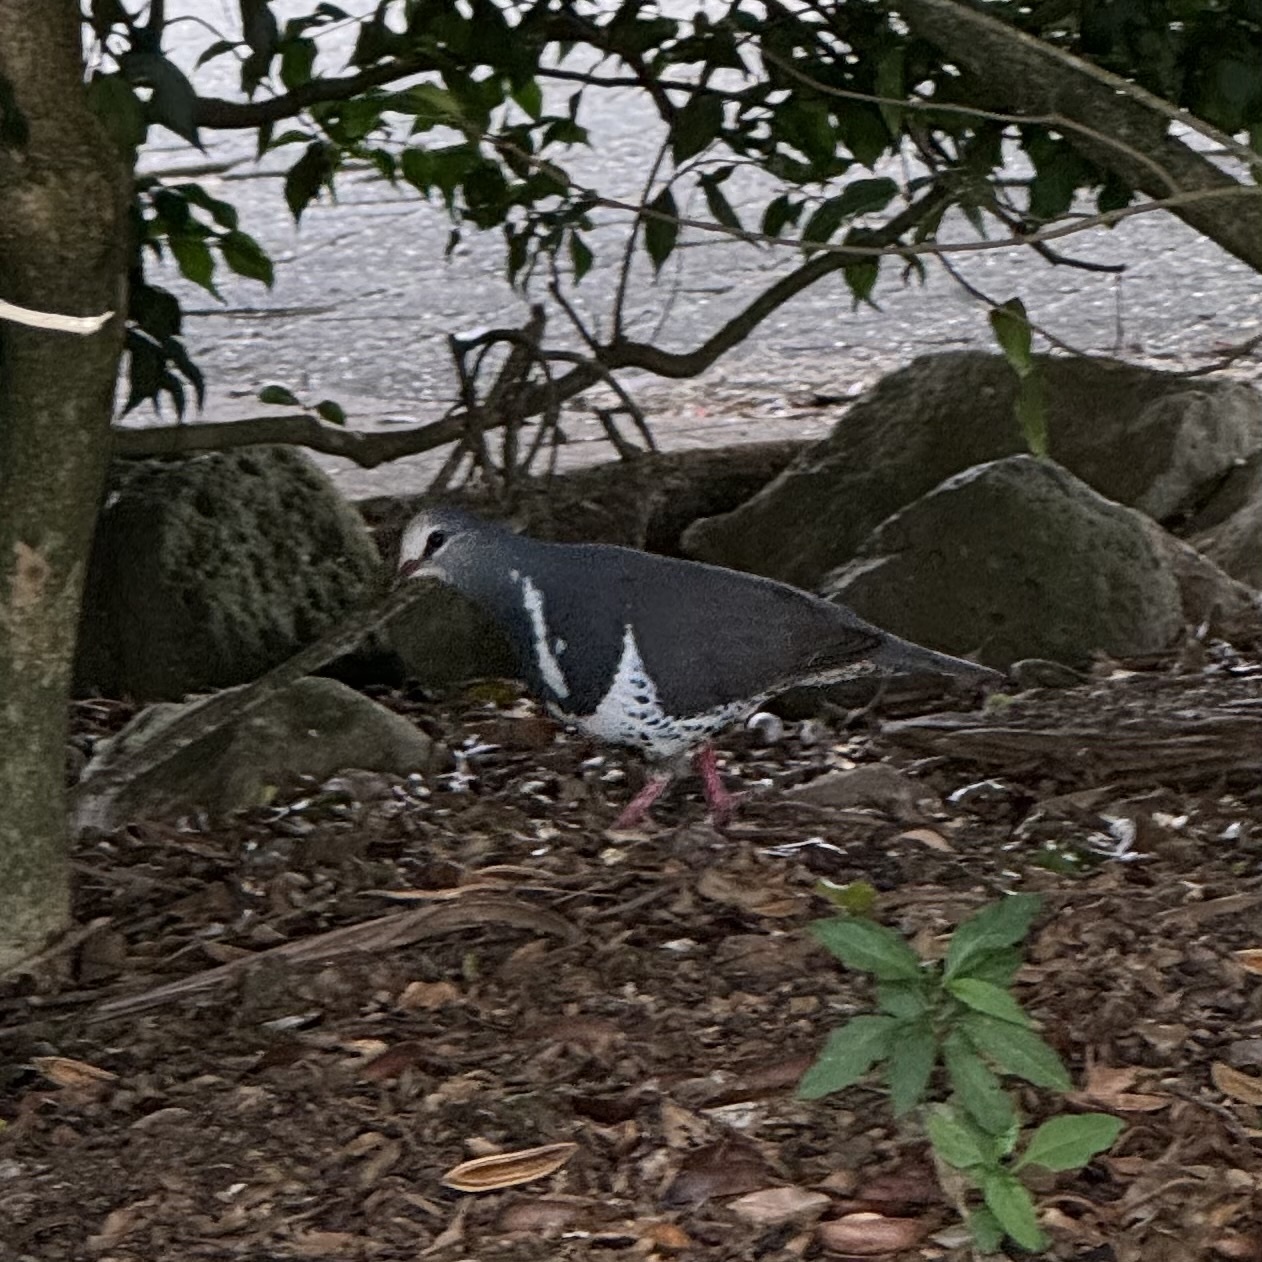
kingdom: Animalia
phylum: Chordata
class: Aves
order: Columbiformes
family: Columbidae
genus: Leucosarcia
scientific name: Leucosarcia melanoleuca
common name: Wonga pigeon
